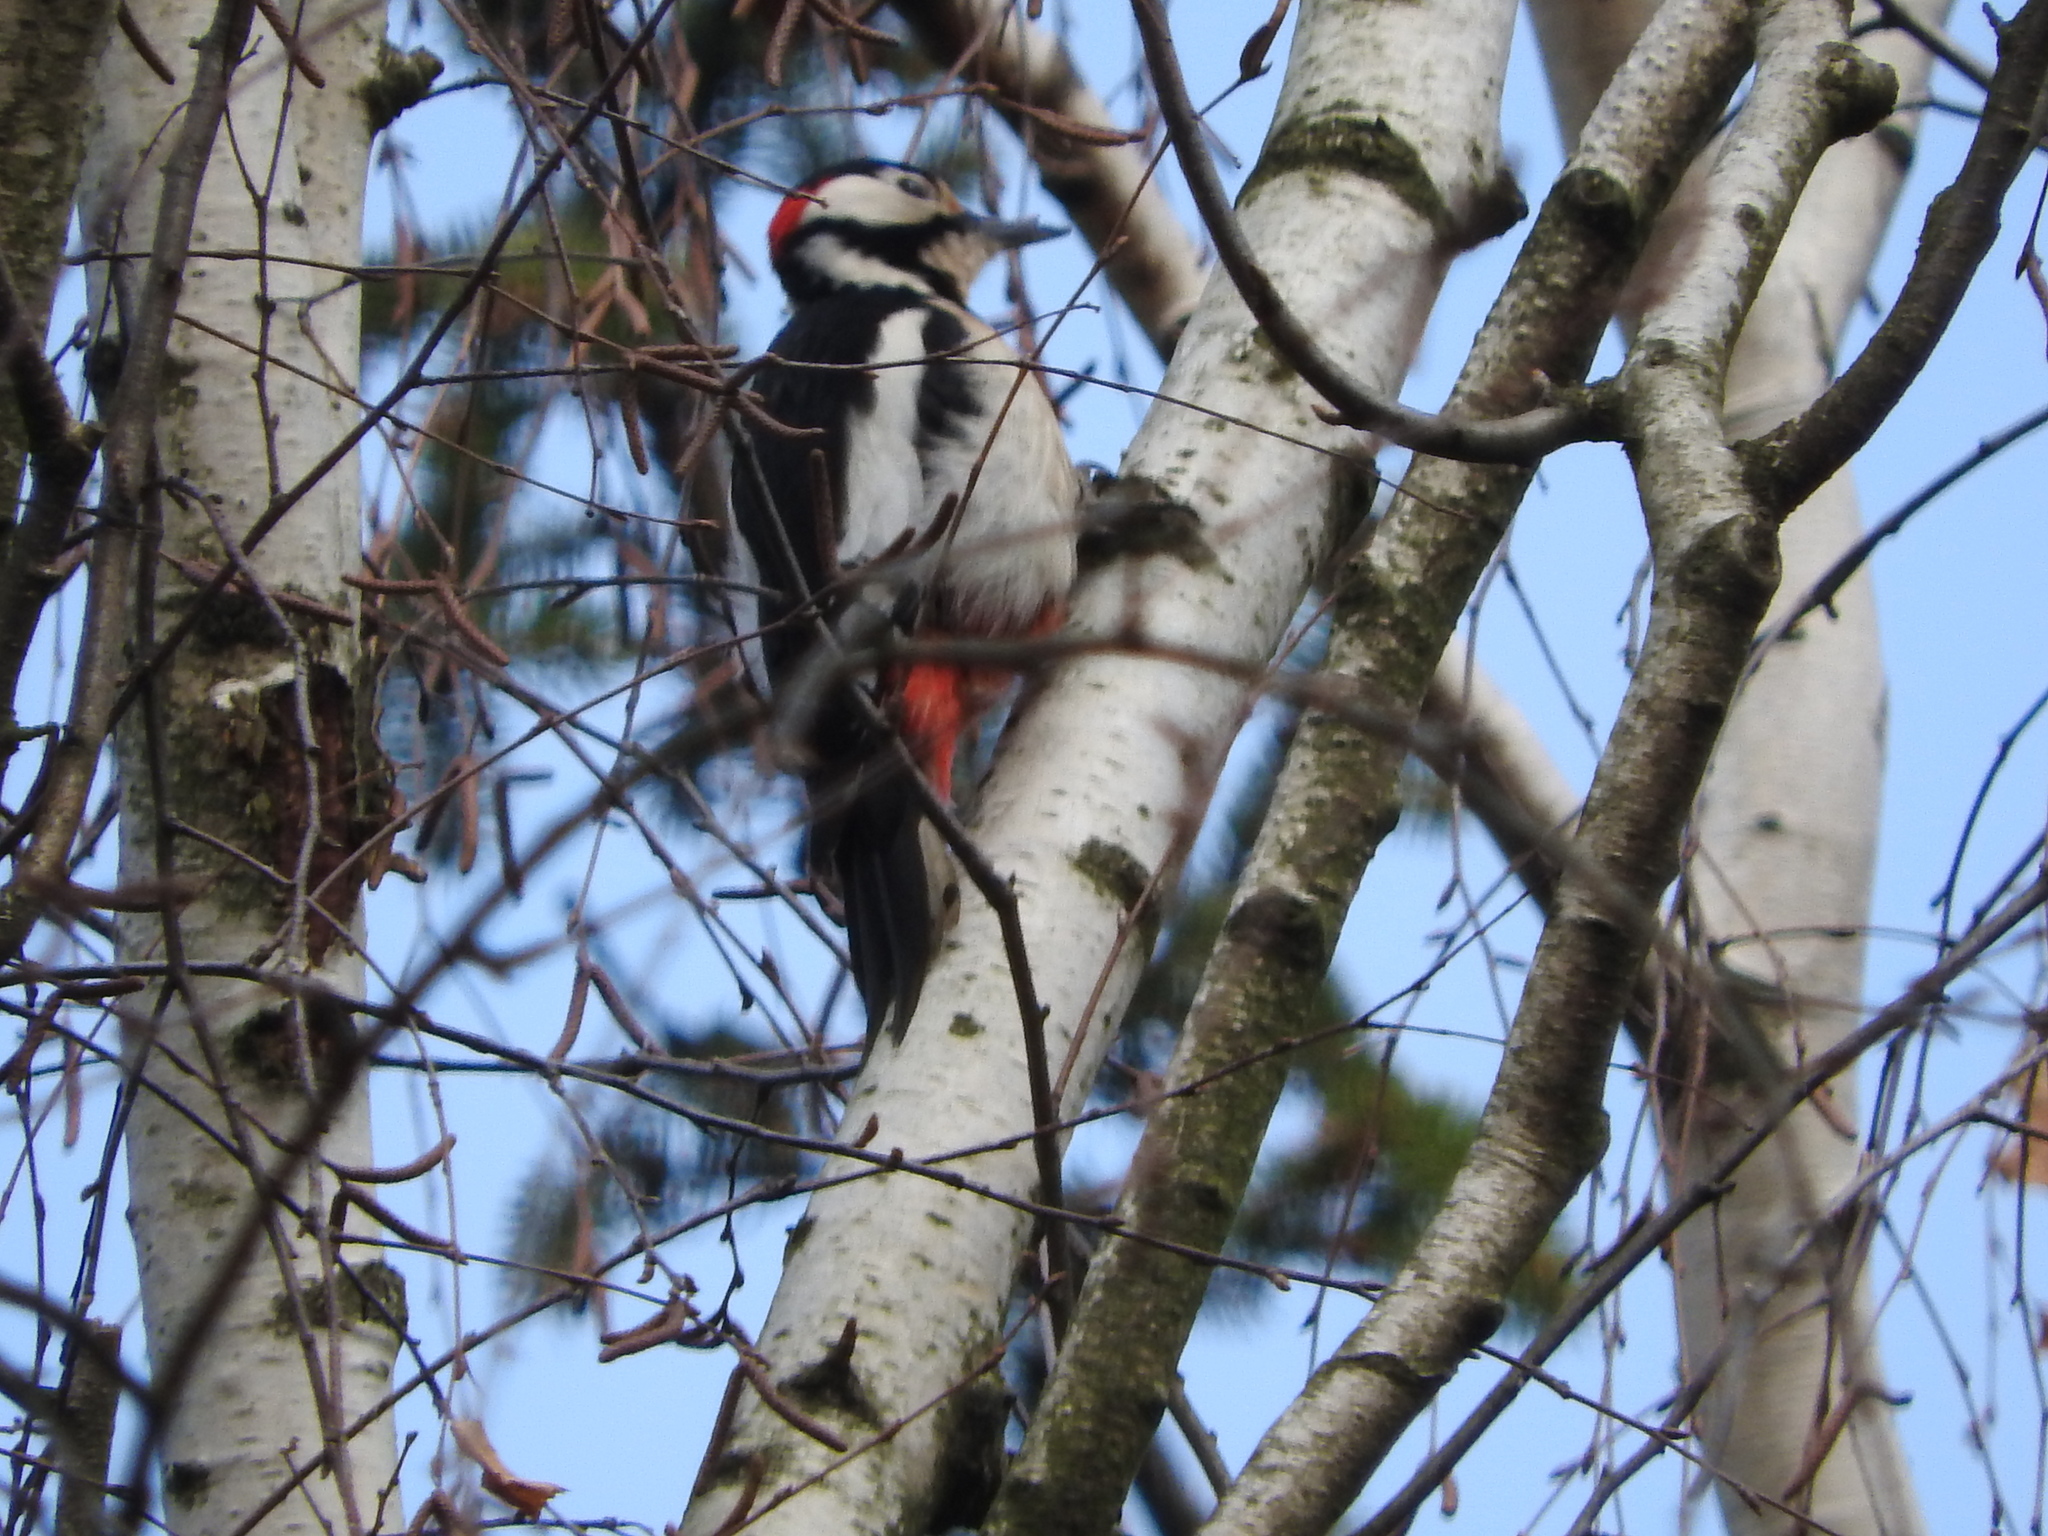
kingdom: Animalia
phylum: Chordata
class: Aves
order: Piciformes
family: Picidae
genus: Dendrocopos
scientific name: Dendrocopos major
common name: Great spotted woodpecker
